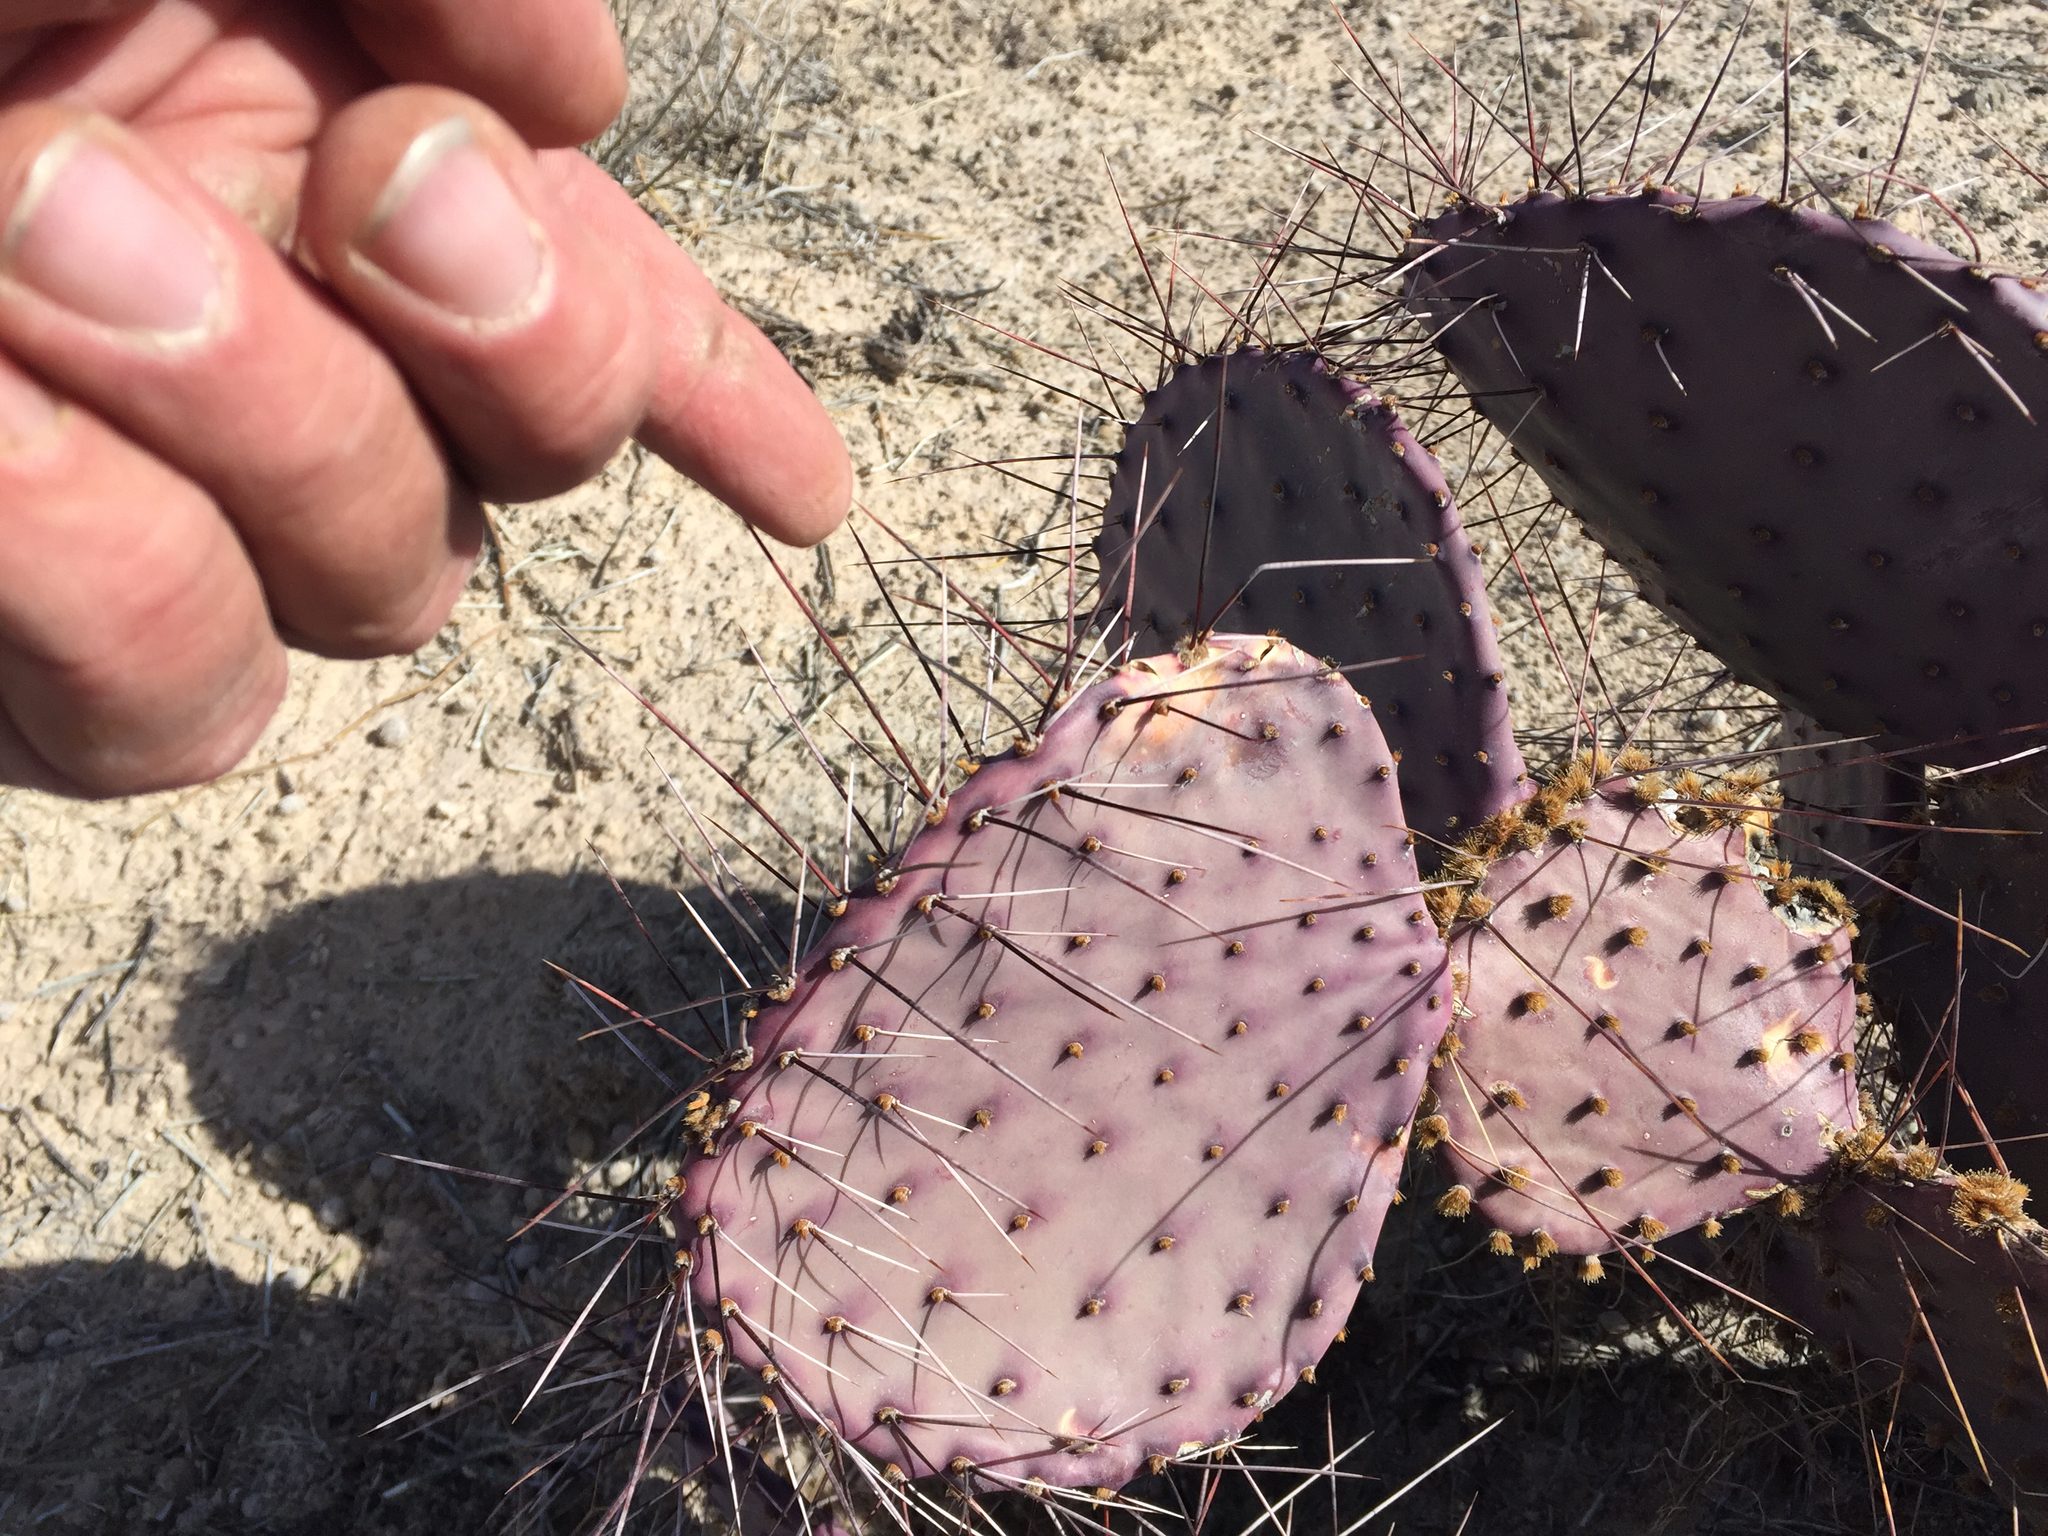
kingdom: Plantae
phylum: Tracheophyta
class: Magnoliopsida
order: Caryophyllales
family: Cactaceae
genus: Opuntia
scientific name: Opuntia macrocentra
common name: Purple prickly-pear
